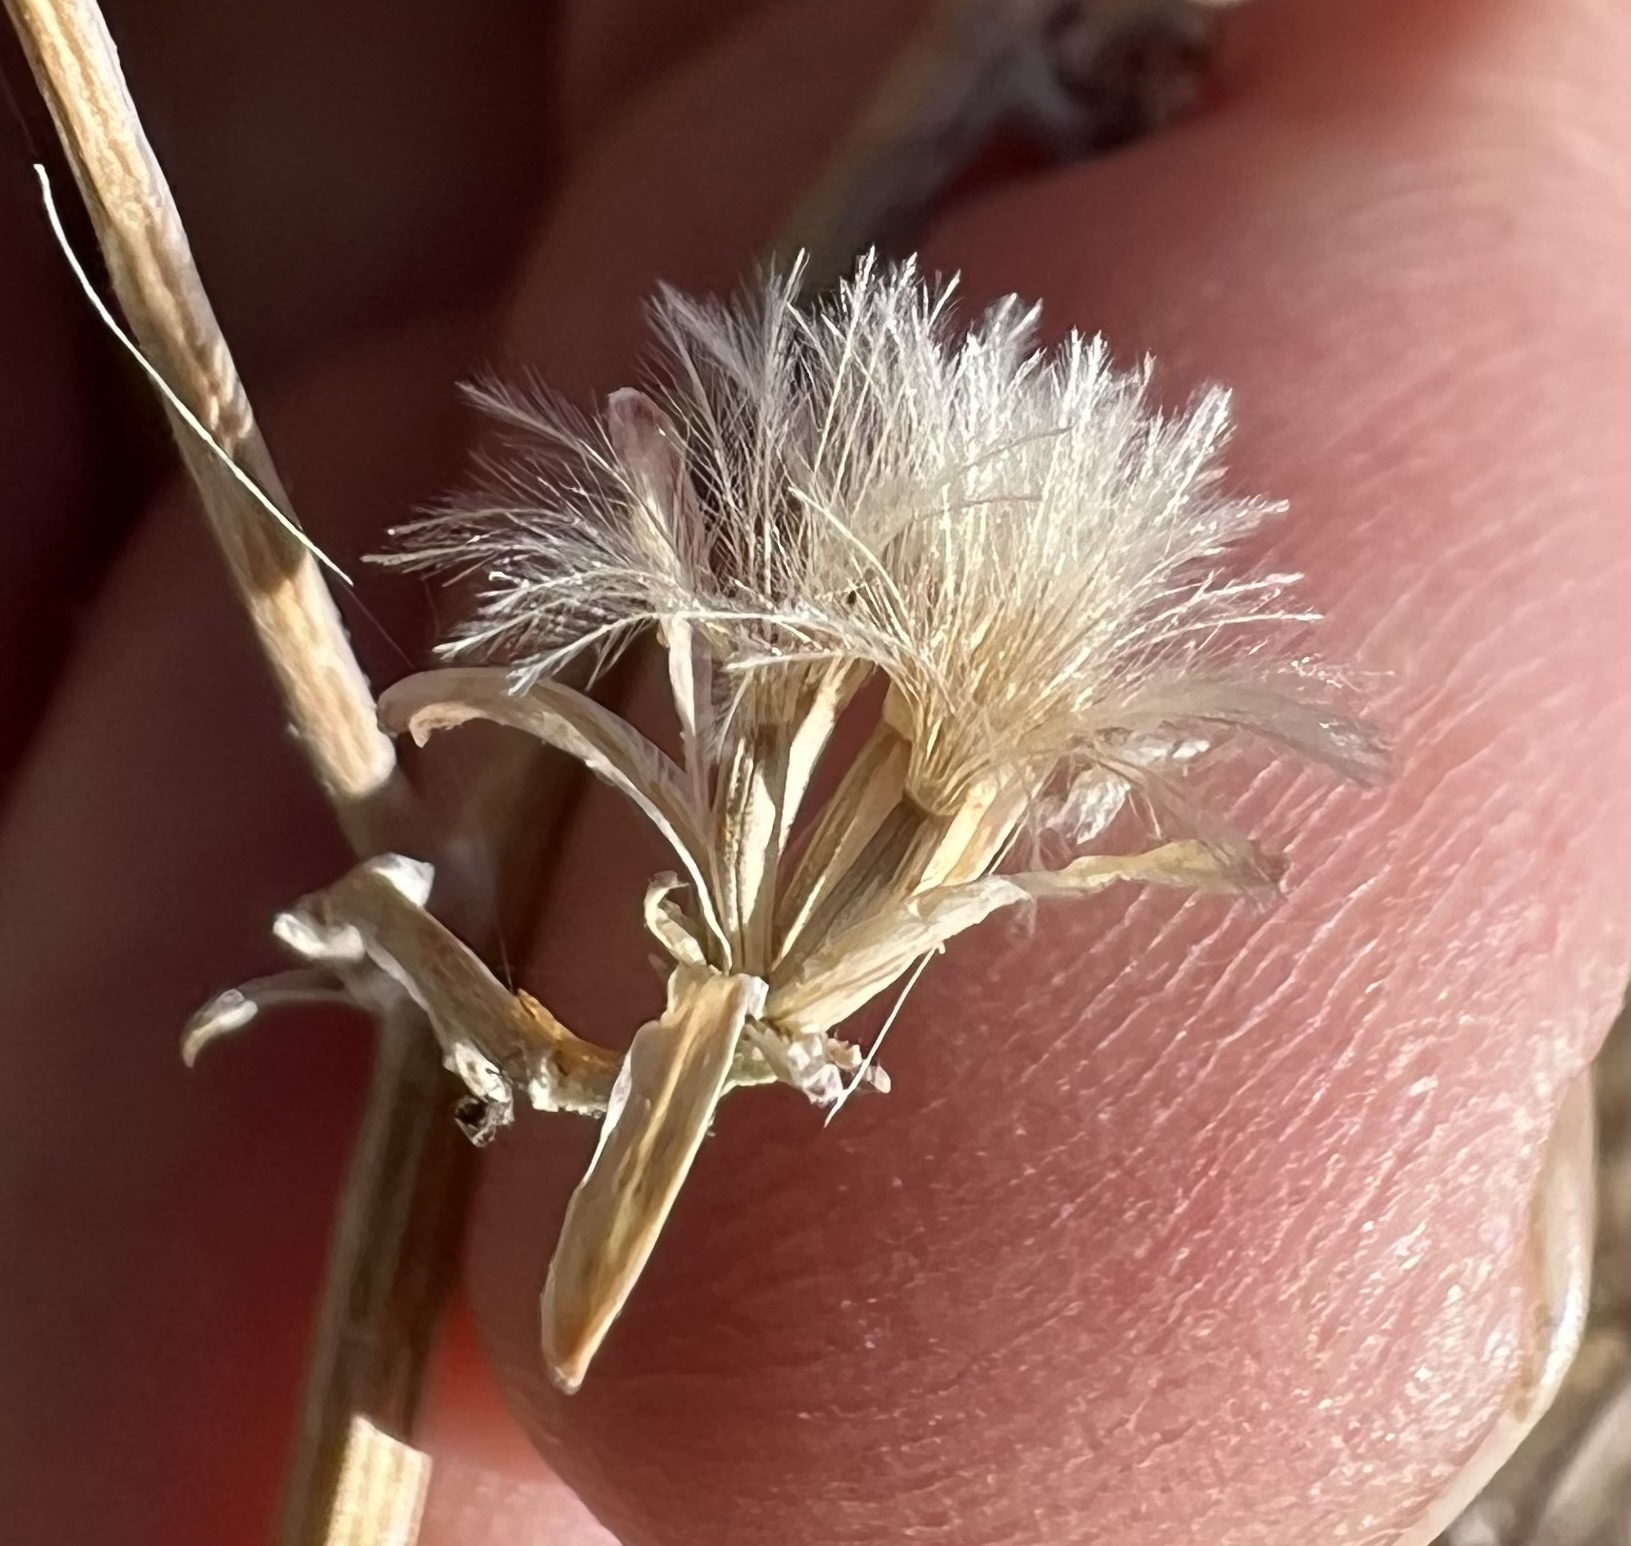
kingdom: Plantae
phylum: Tracheophyta
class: Magnoliopsida
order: Asterales
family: Asteraceae
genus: Stephanomeria
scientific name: Stephanomeria pauciflora
